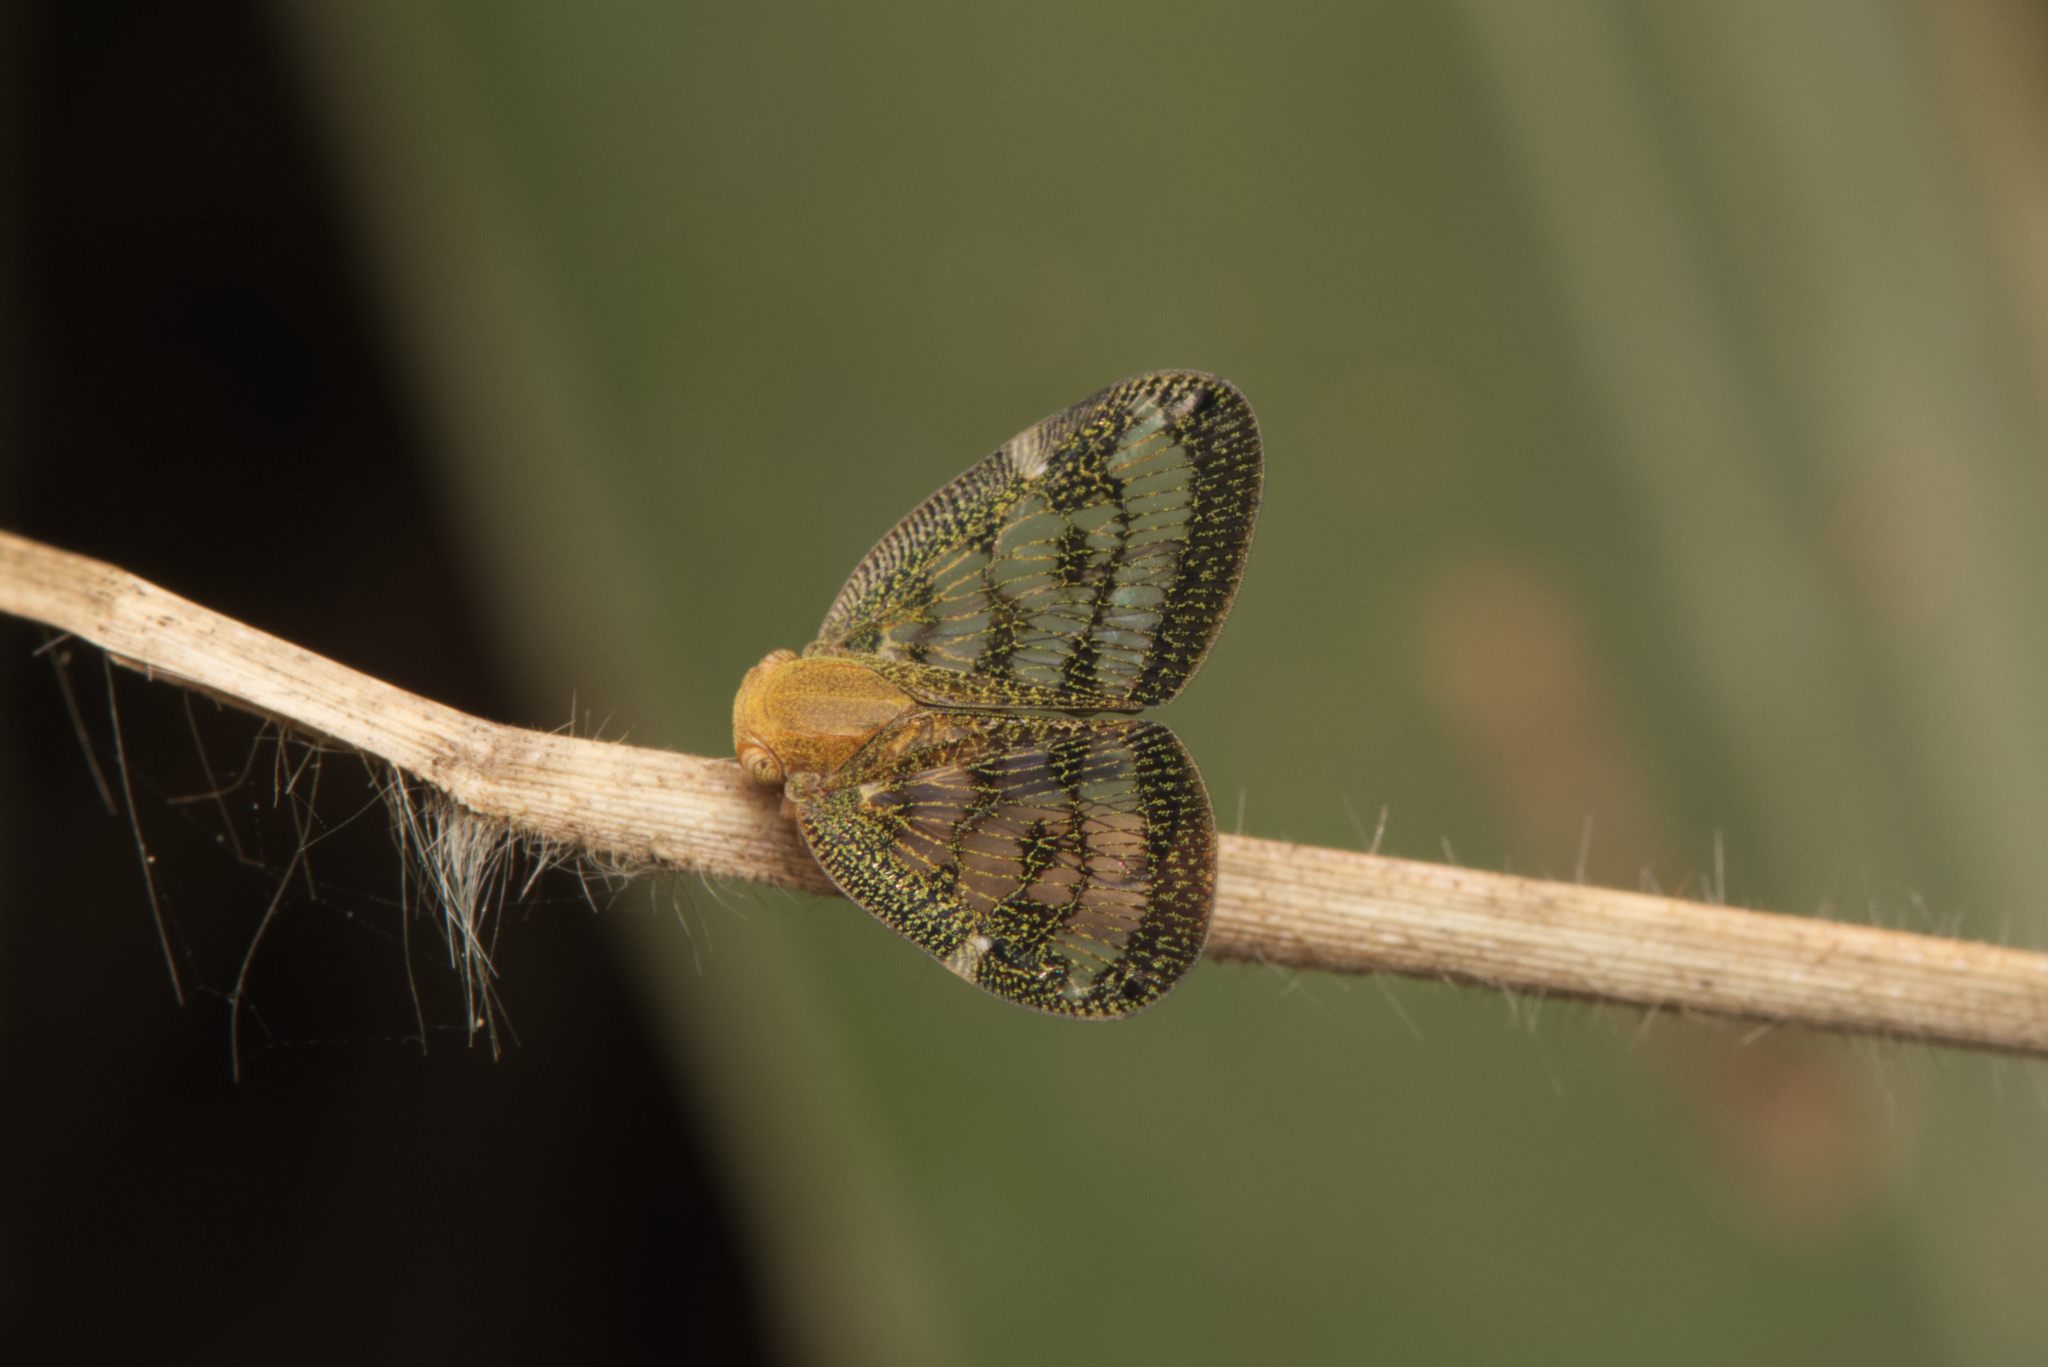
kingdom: Animalia
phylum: Arthropoda
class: Insecta
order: Hemiptera
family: Ricaniidae
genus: Scolypopa
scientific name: Scolypopa australis
